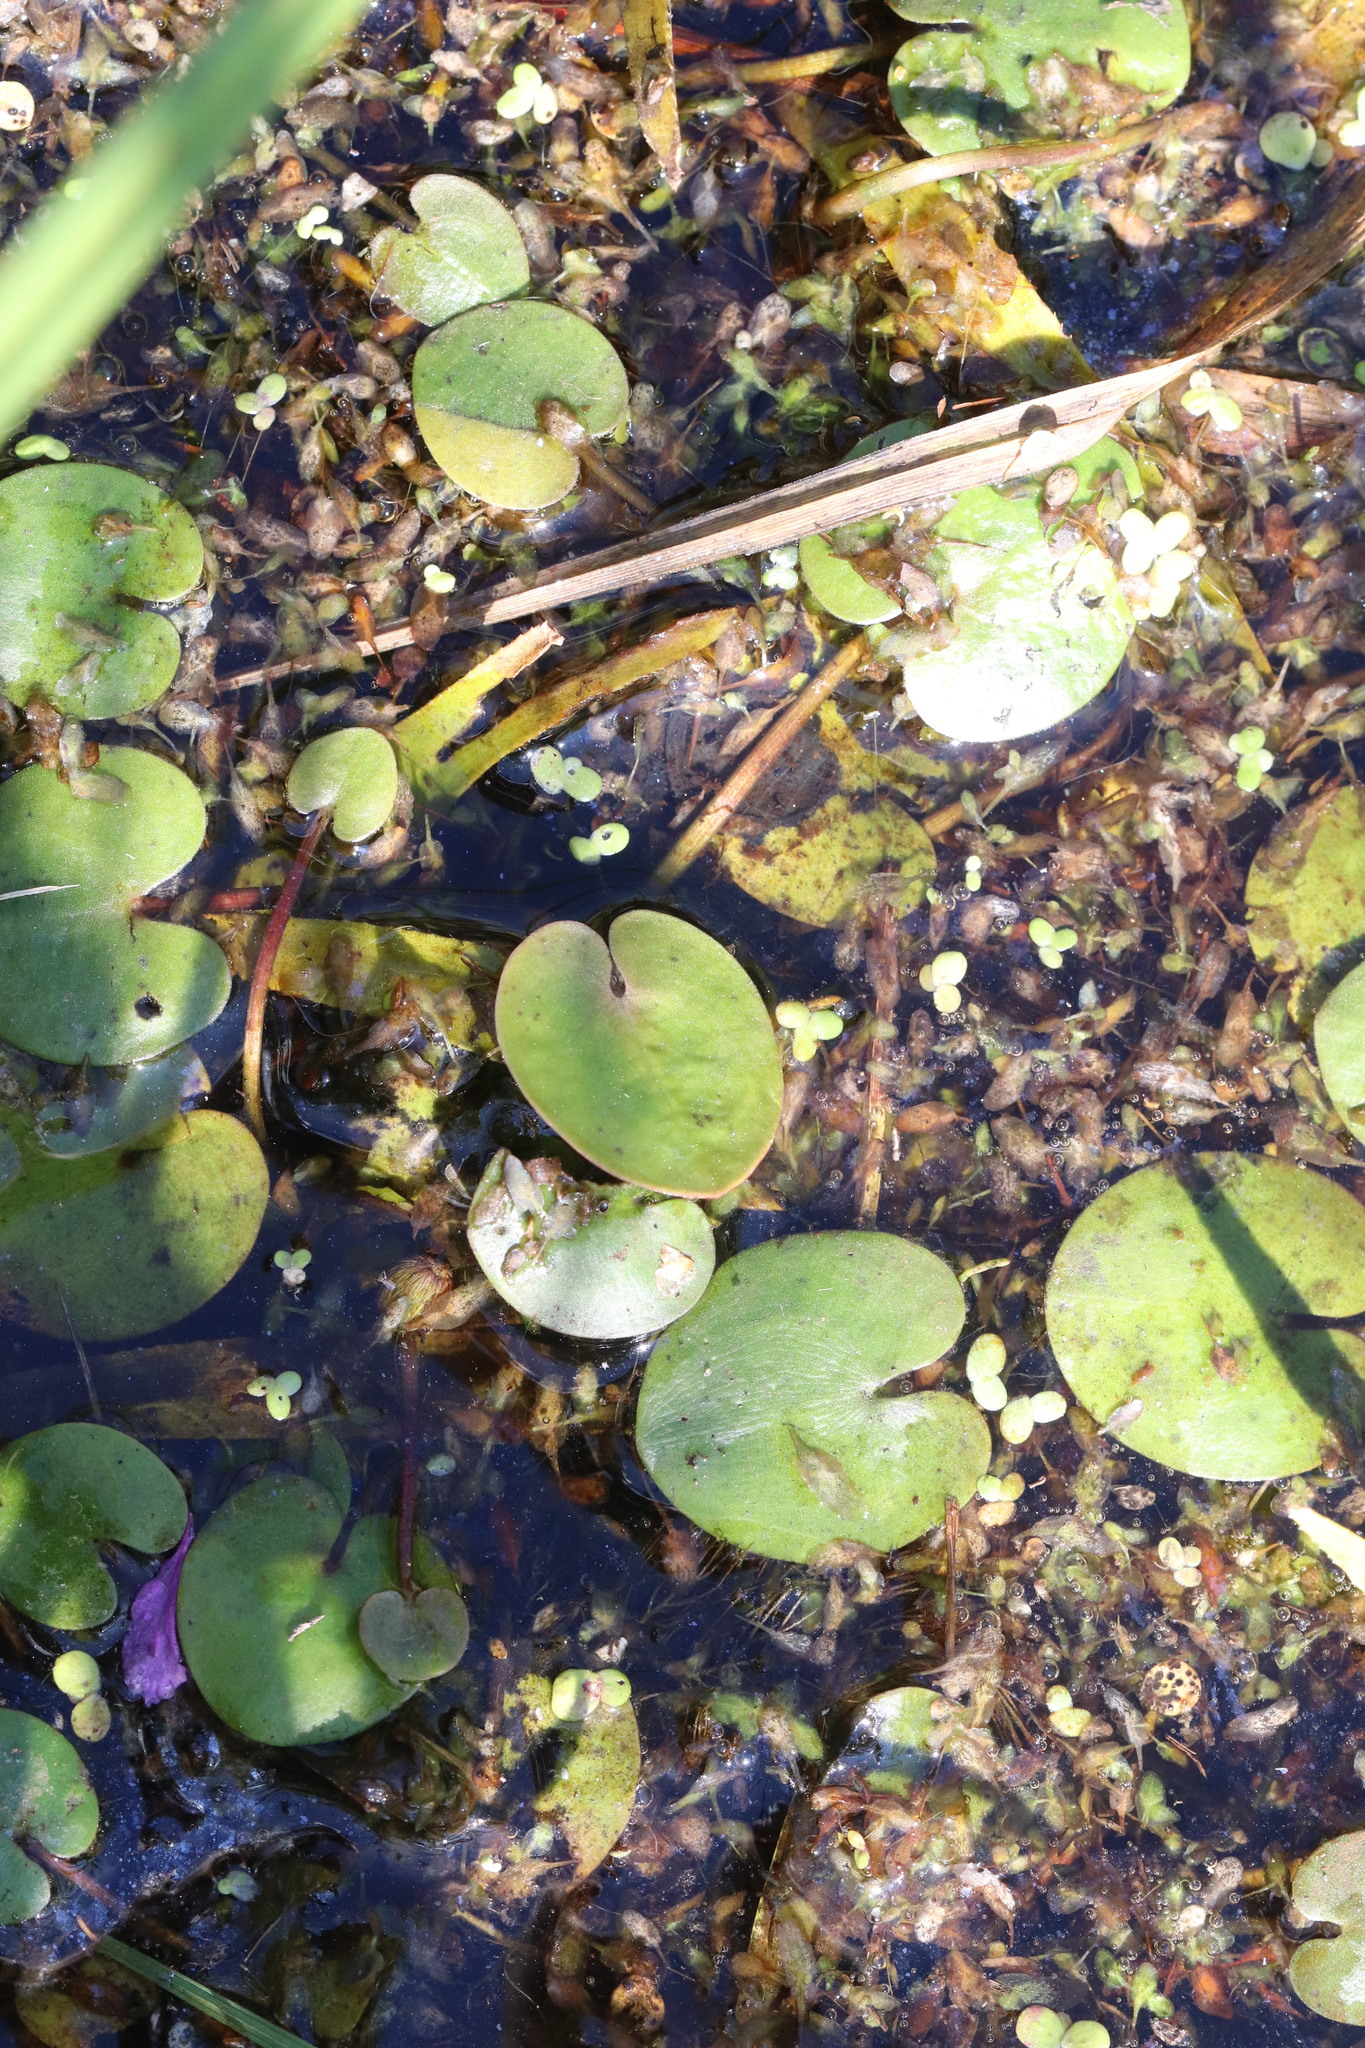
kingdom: Plantae
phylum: Tracheophyta
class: Liliopsida
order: Alismatales
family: Hydrocharitaceae
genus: Hydrocharis
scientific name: Hydrocharis morsus-ranae
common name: Frogbit
